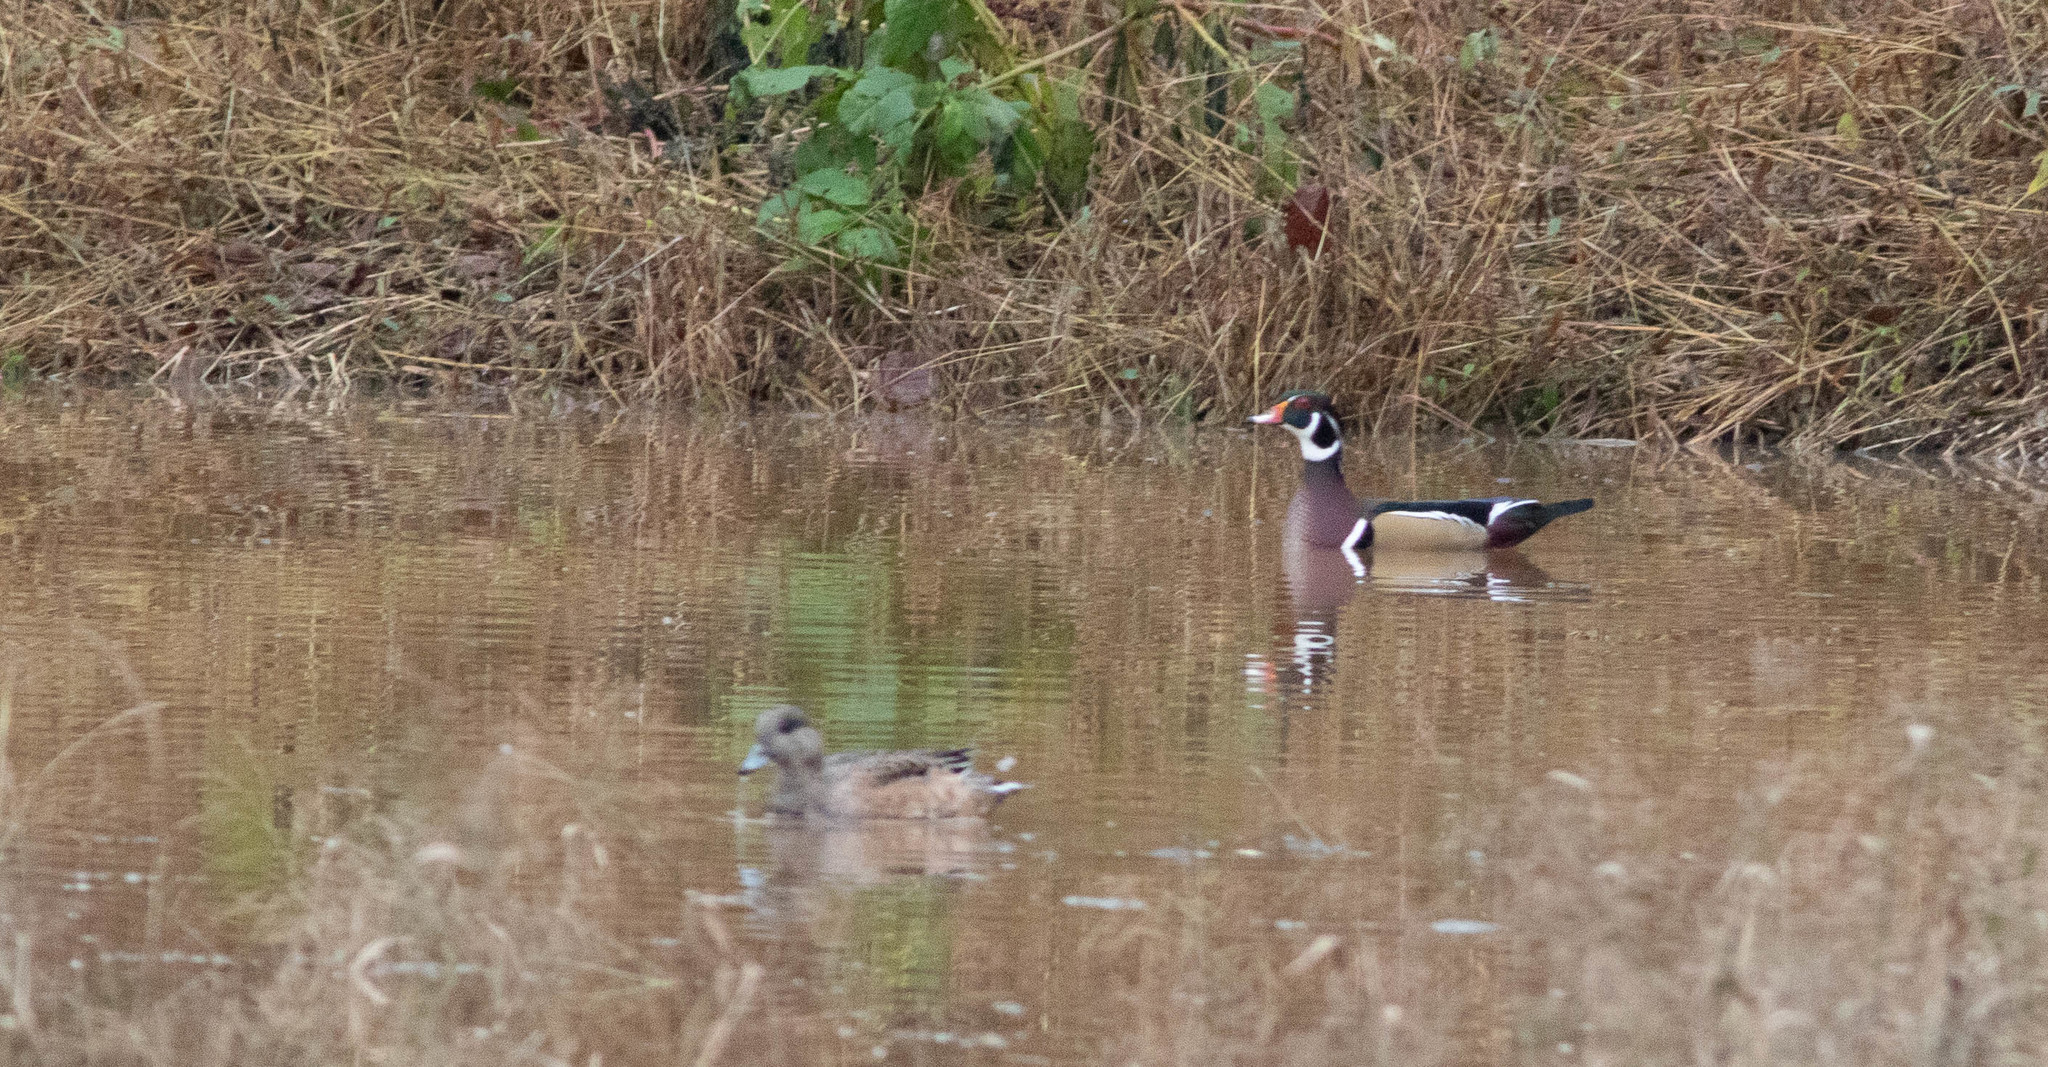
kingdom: Animalia
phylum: Chordata
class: Aves
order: Anseriformes
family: Anatidae
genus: Aix
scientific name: Aix sponsa
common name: Wood duck
